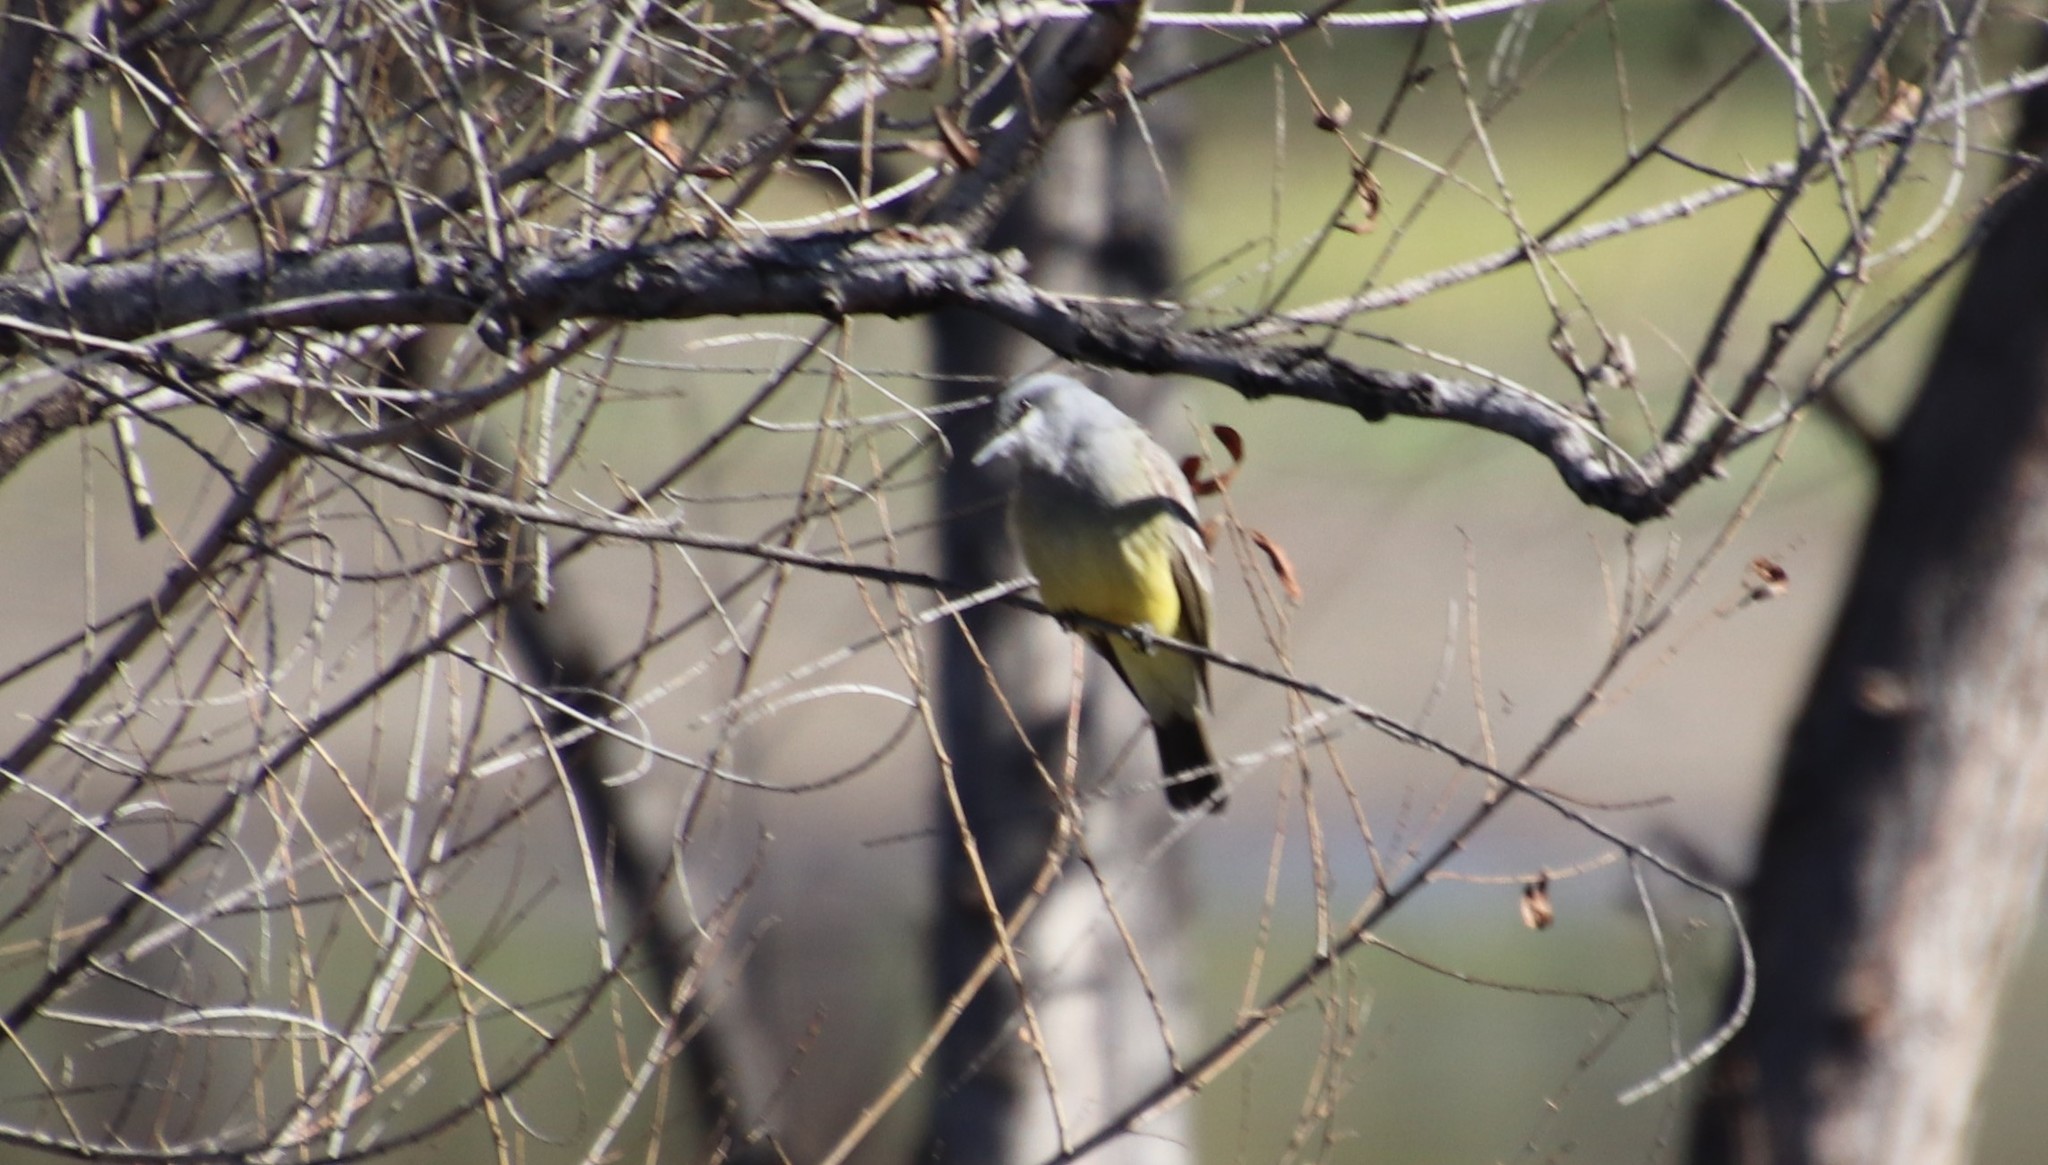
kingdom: Animalia
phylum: Chordata
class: Aves
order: Passeriformes
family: Tyrannidae
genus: Tyrannus
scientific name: Tyrannus vociferans
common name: Cassin's kingbird
